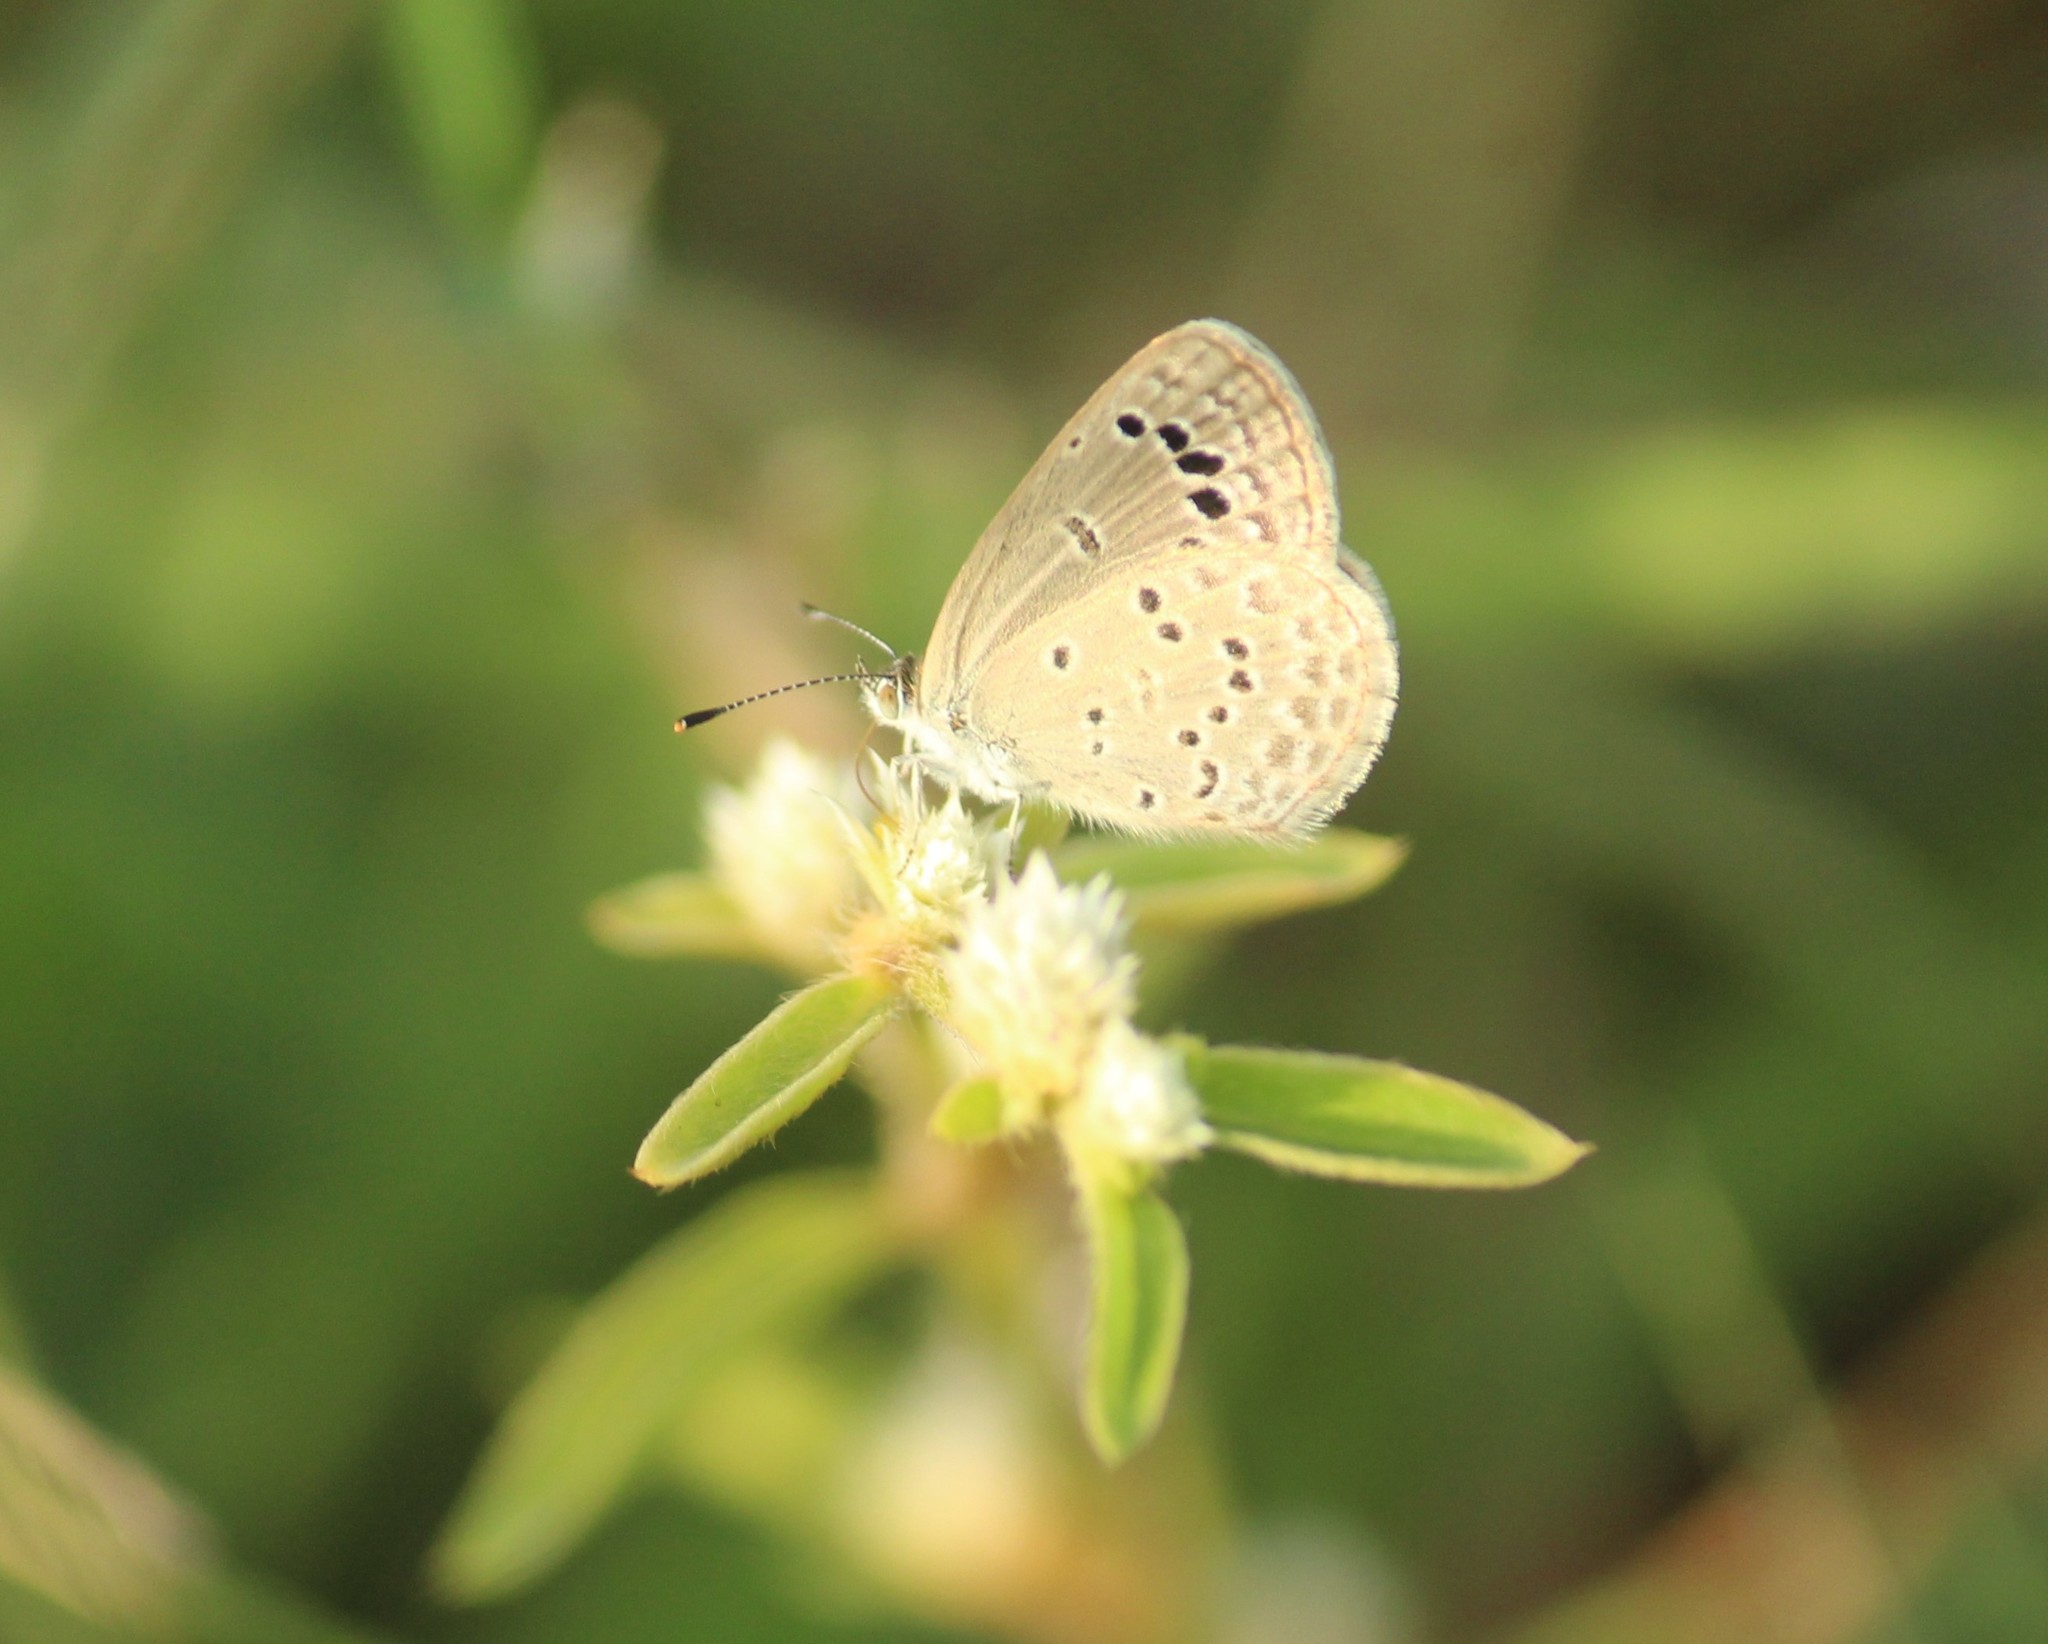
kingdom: Animalia
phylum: Arthropoda
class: Insecta
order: Lepidoptera
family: Lycaenidae
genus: Zizina
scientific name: Zizina otis
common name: Lesser grass blue
